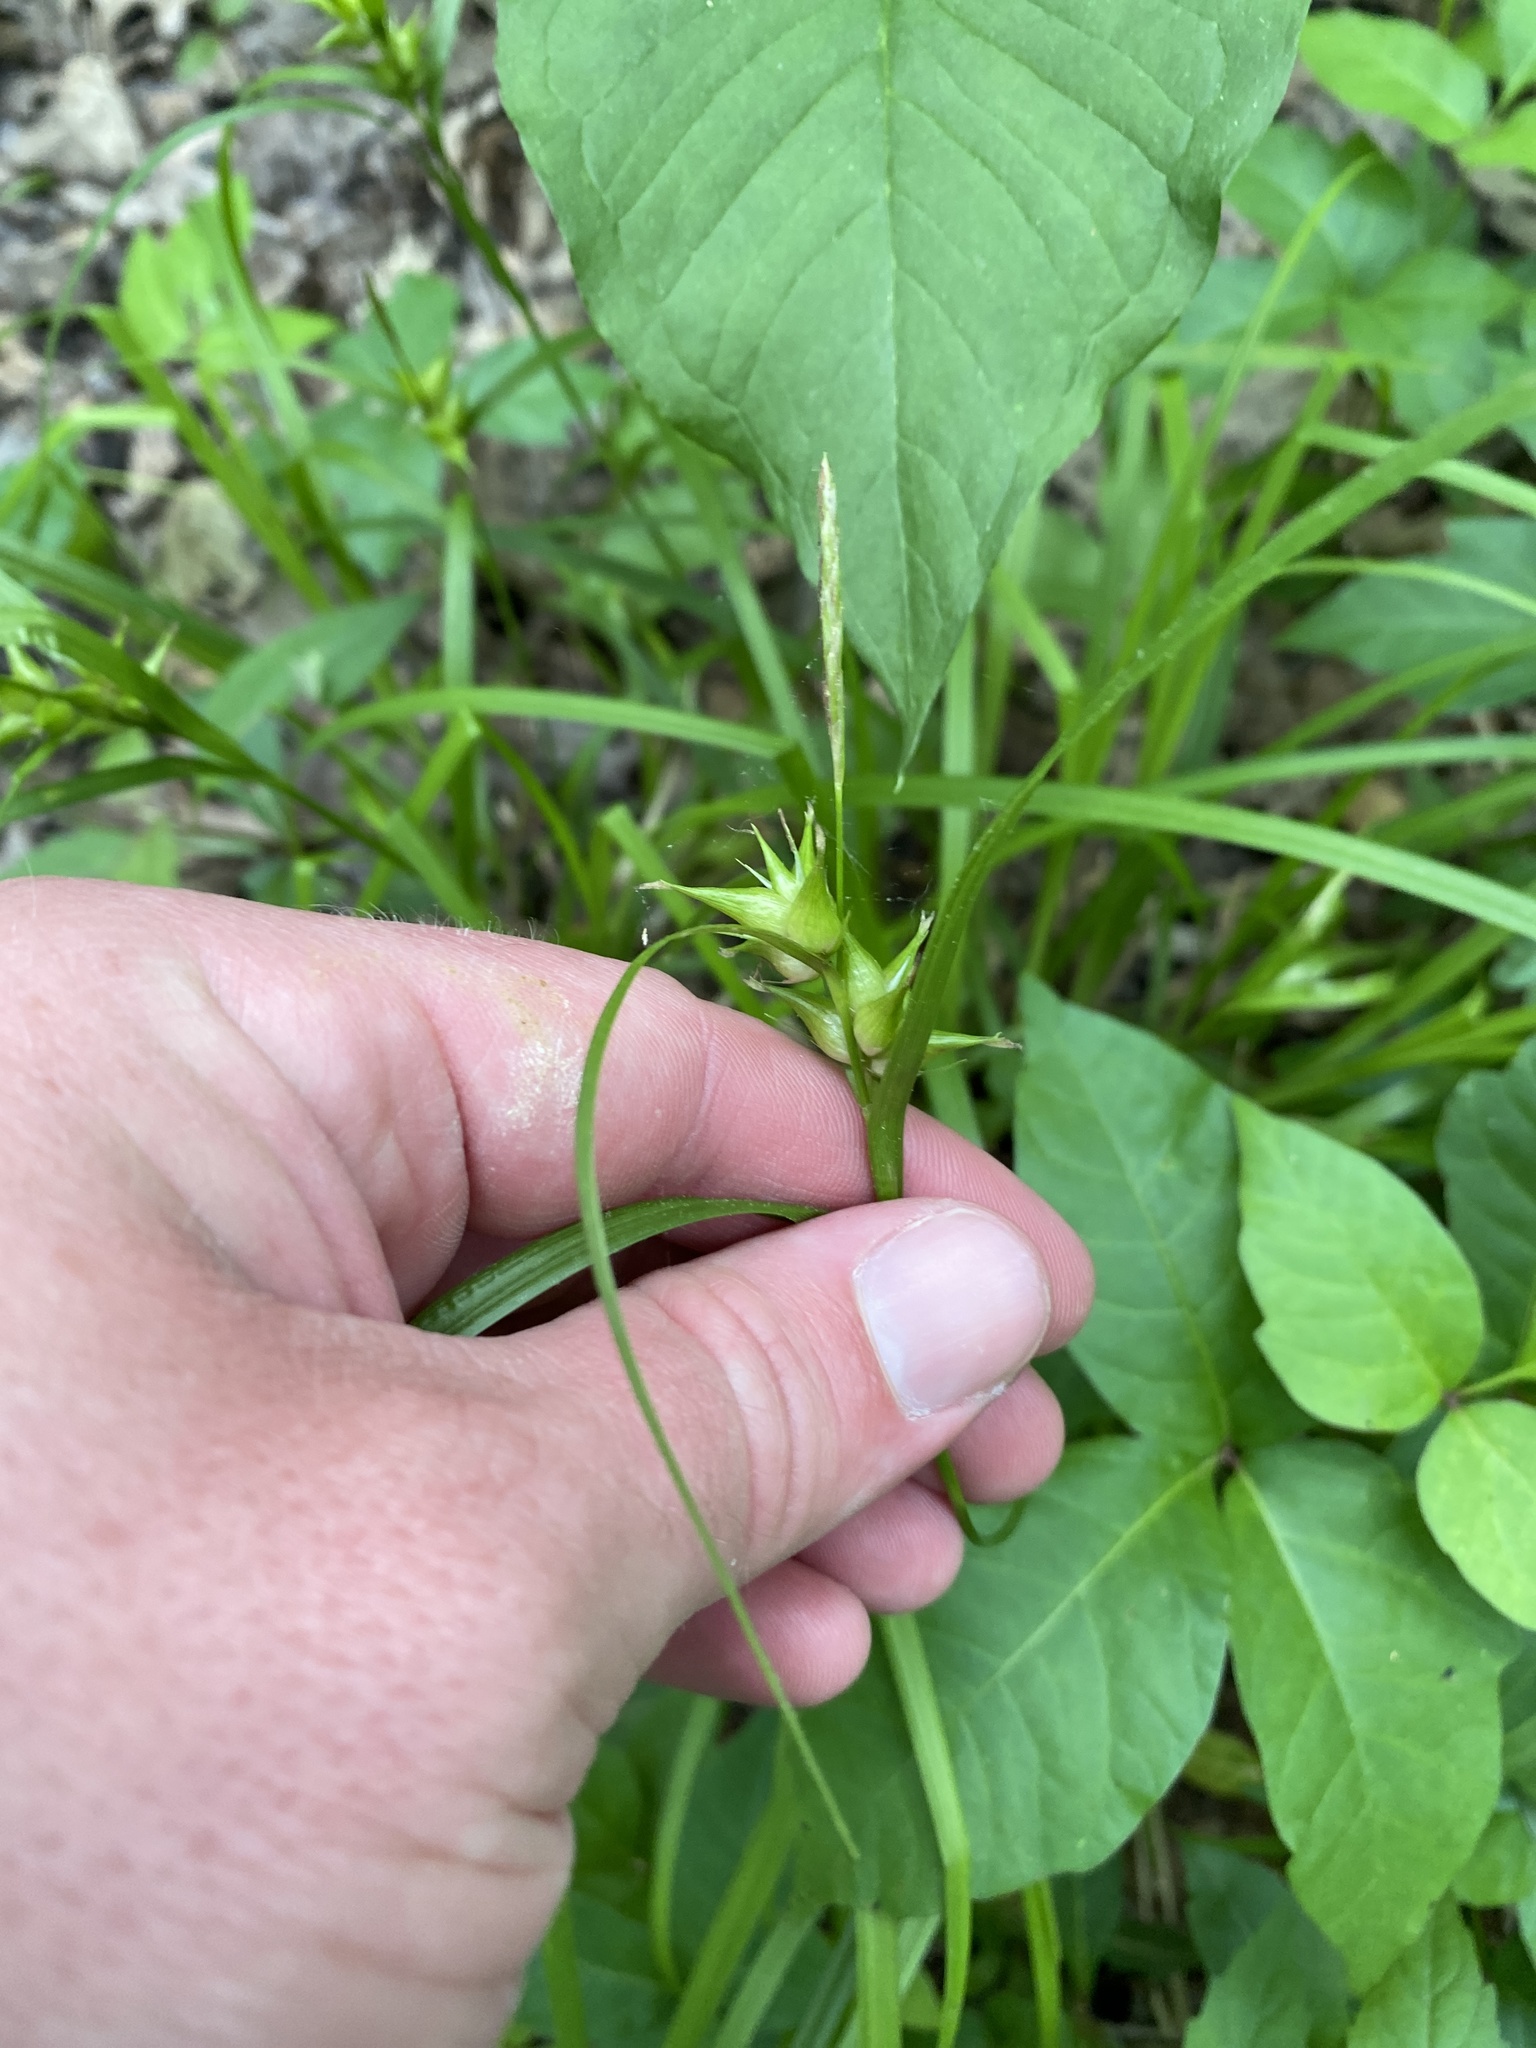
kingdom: Plantae
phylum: Tracheophyta
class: Liliopsida
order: Poales
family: Cyperaceae
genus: Carex
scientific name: Carex intumescens
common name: Greater bladder sedge
